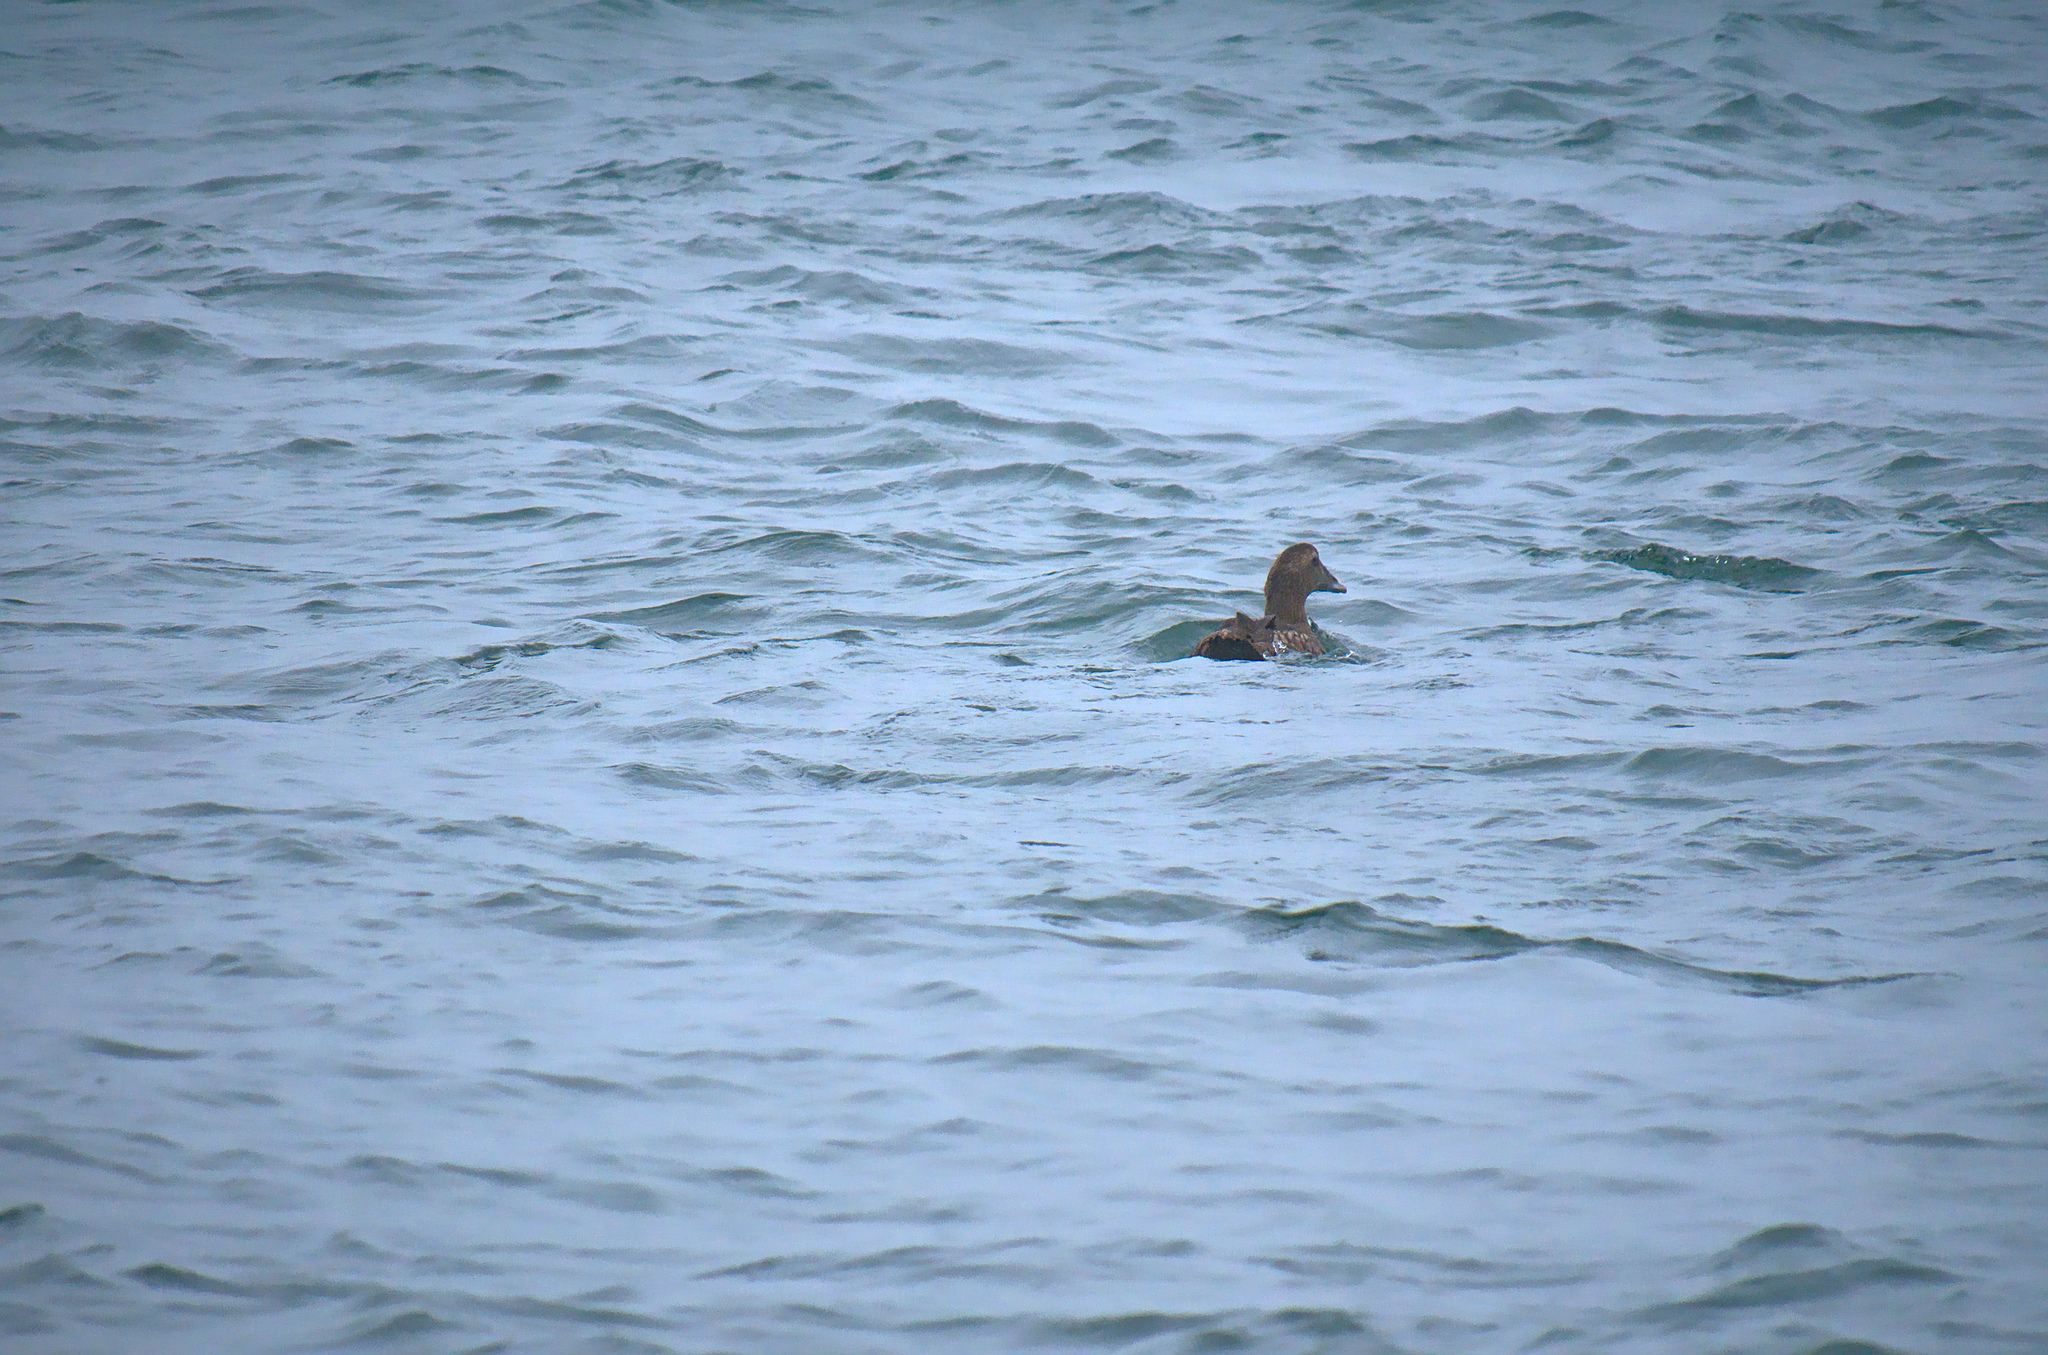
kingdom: Animalia
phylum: Chordata
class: Aves
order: Anseriformes
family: Anatidae
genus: Somateria
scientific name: Somateria mollissima
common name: Common eider
